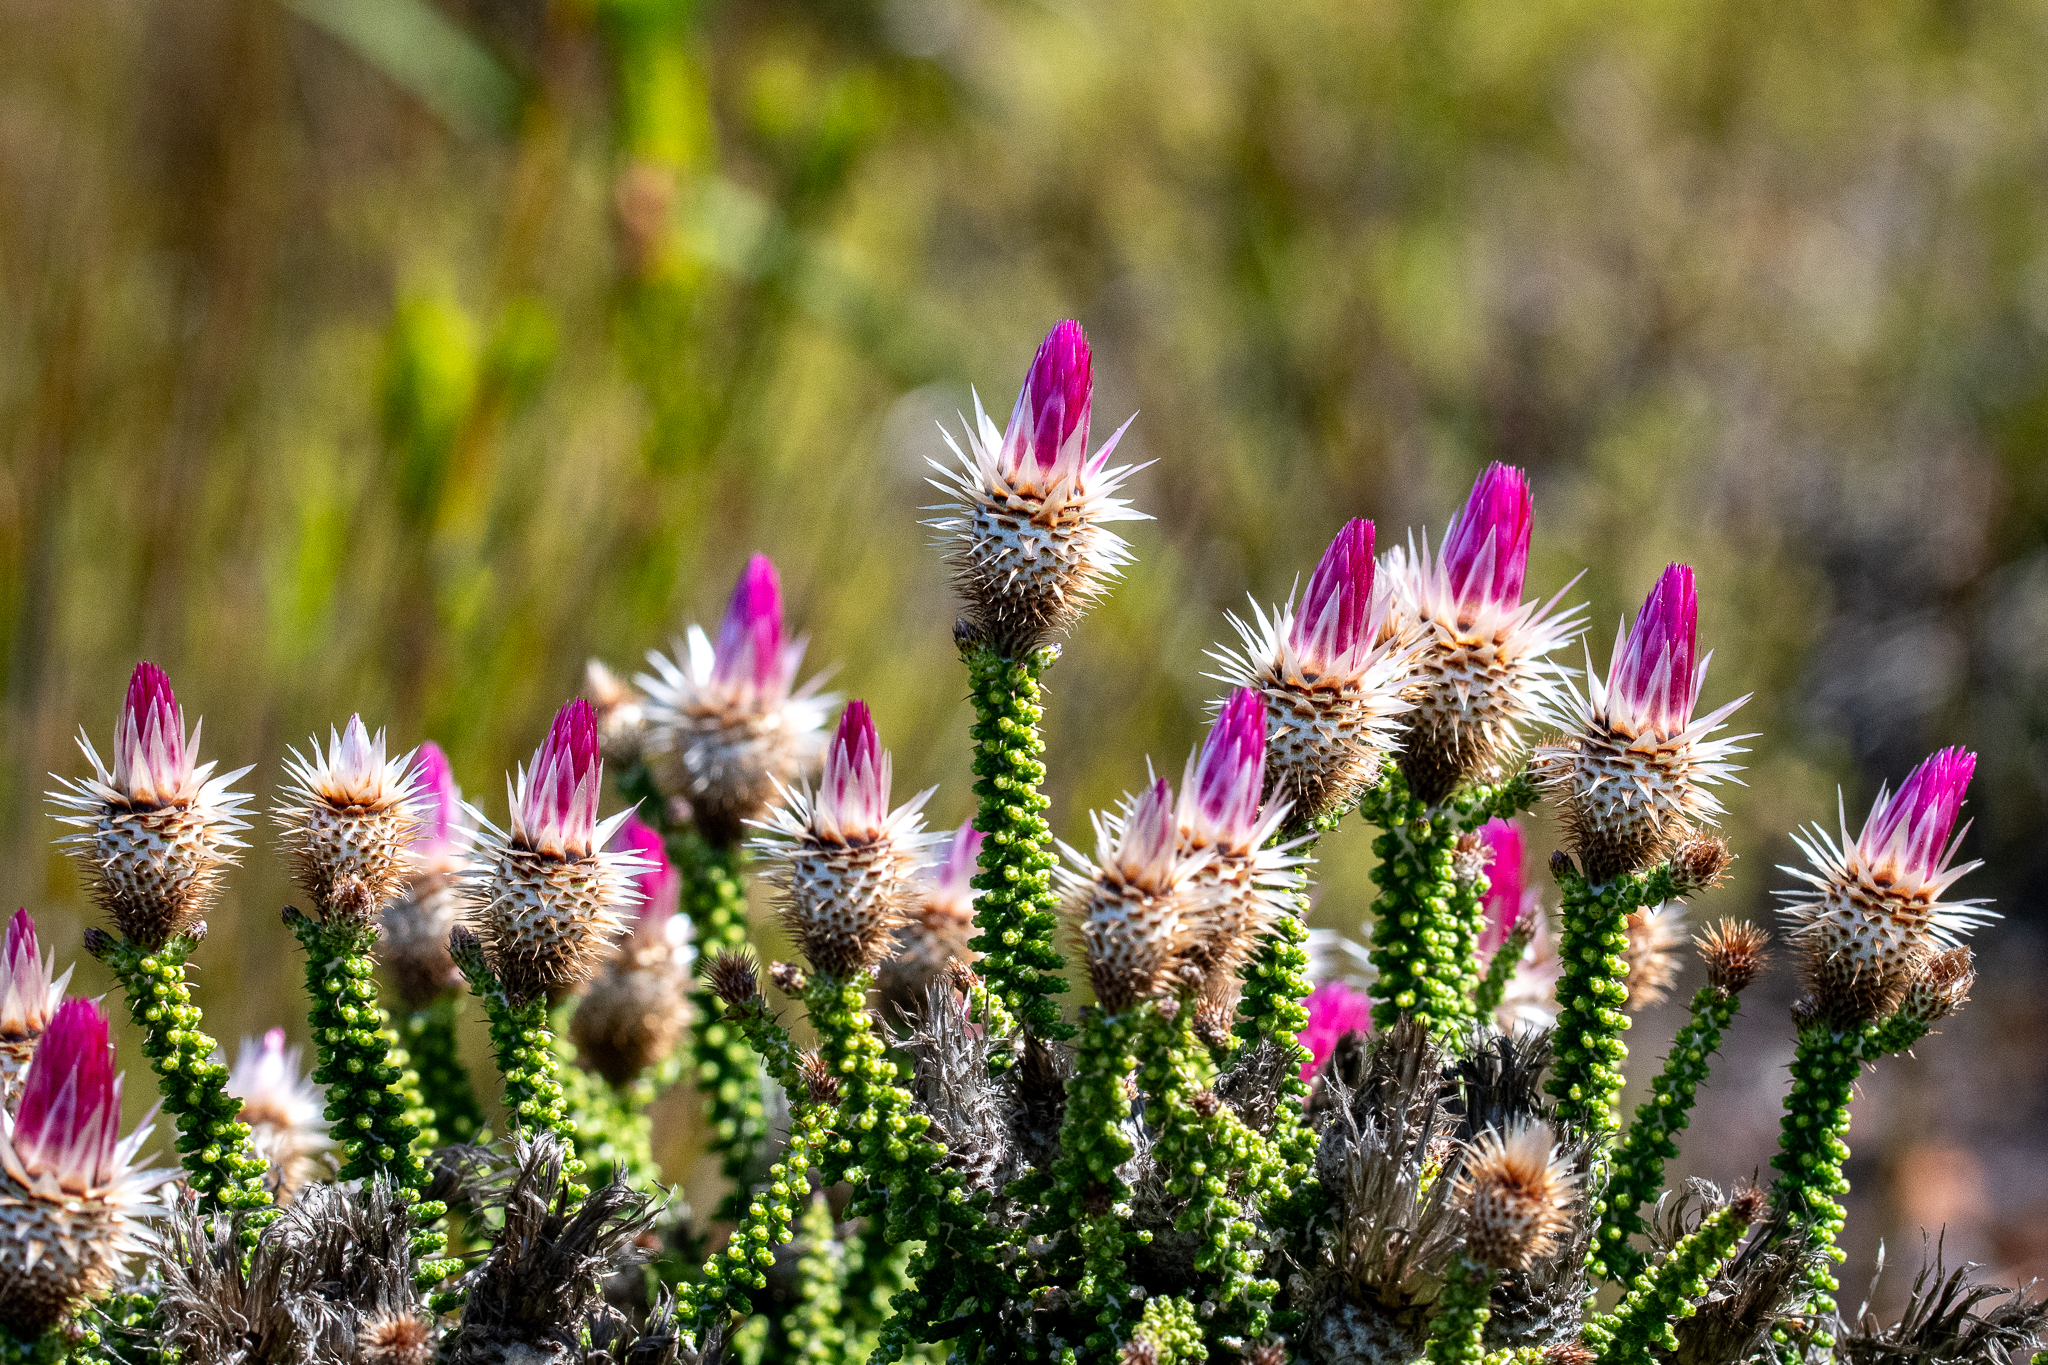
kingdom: Plantae
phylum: Tracheophyta
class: Magnoliopsida
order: Asterales
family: Asteraceae
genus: Phaenocoma
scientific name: Phaenocoma prolifera
